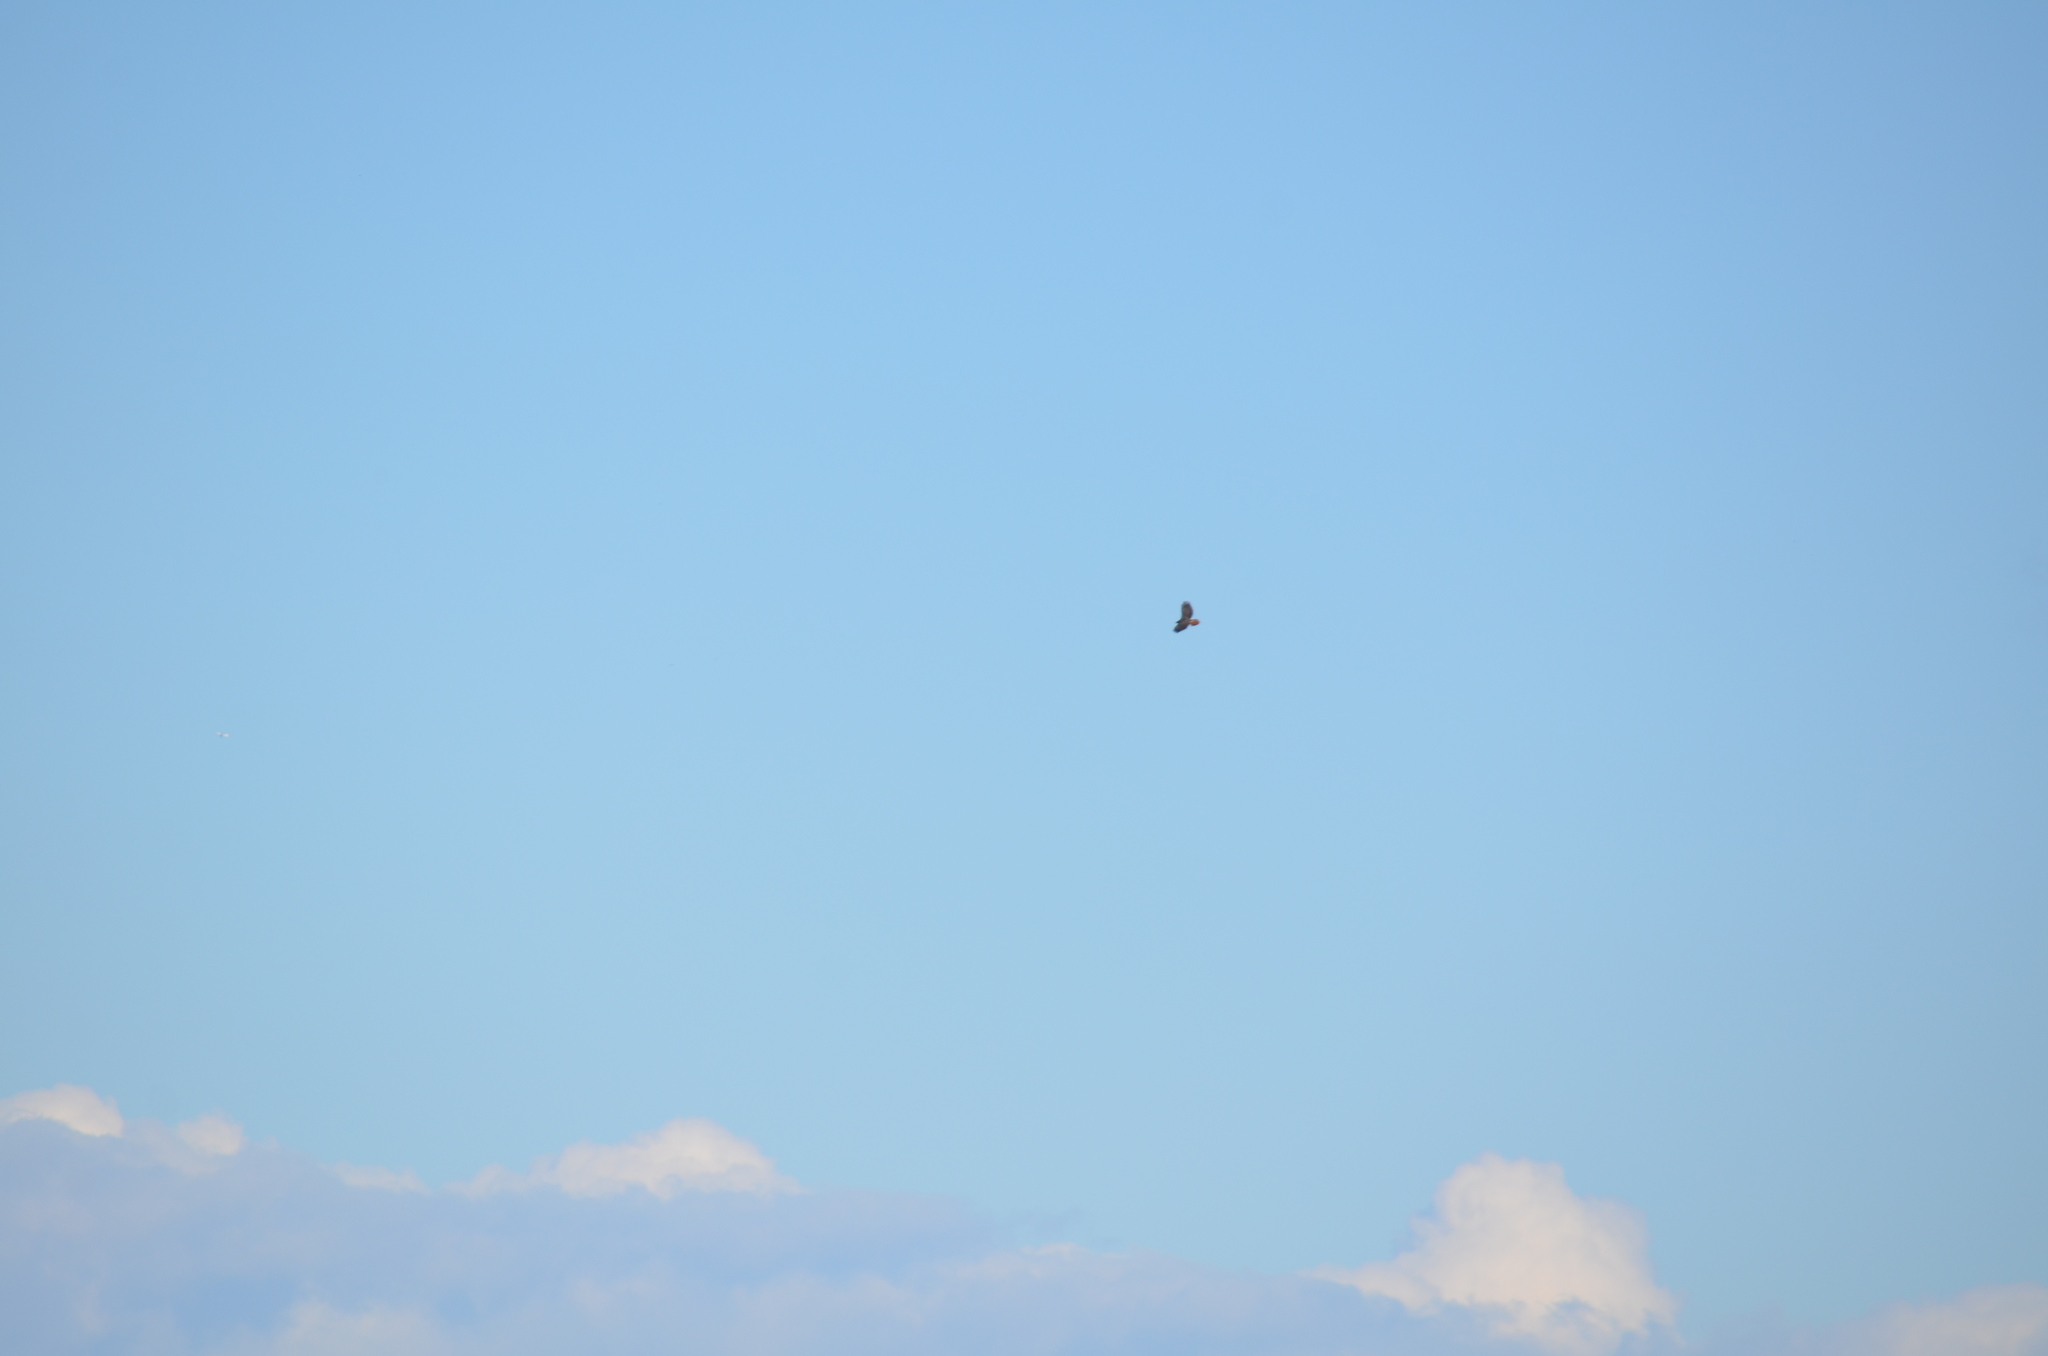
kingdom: Animalia
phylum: Chordata
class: Aves
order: Accipitriformes
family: Accipitridae
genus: Buteo
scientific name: Buteo jamaicensis
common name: Red-tailed hawk
